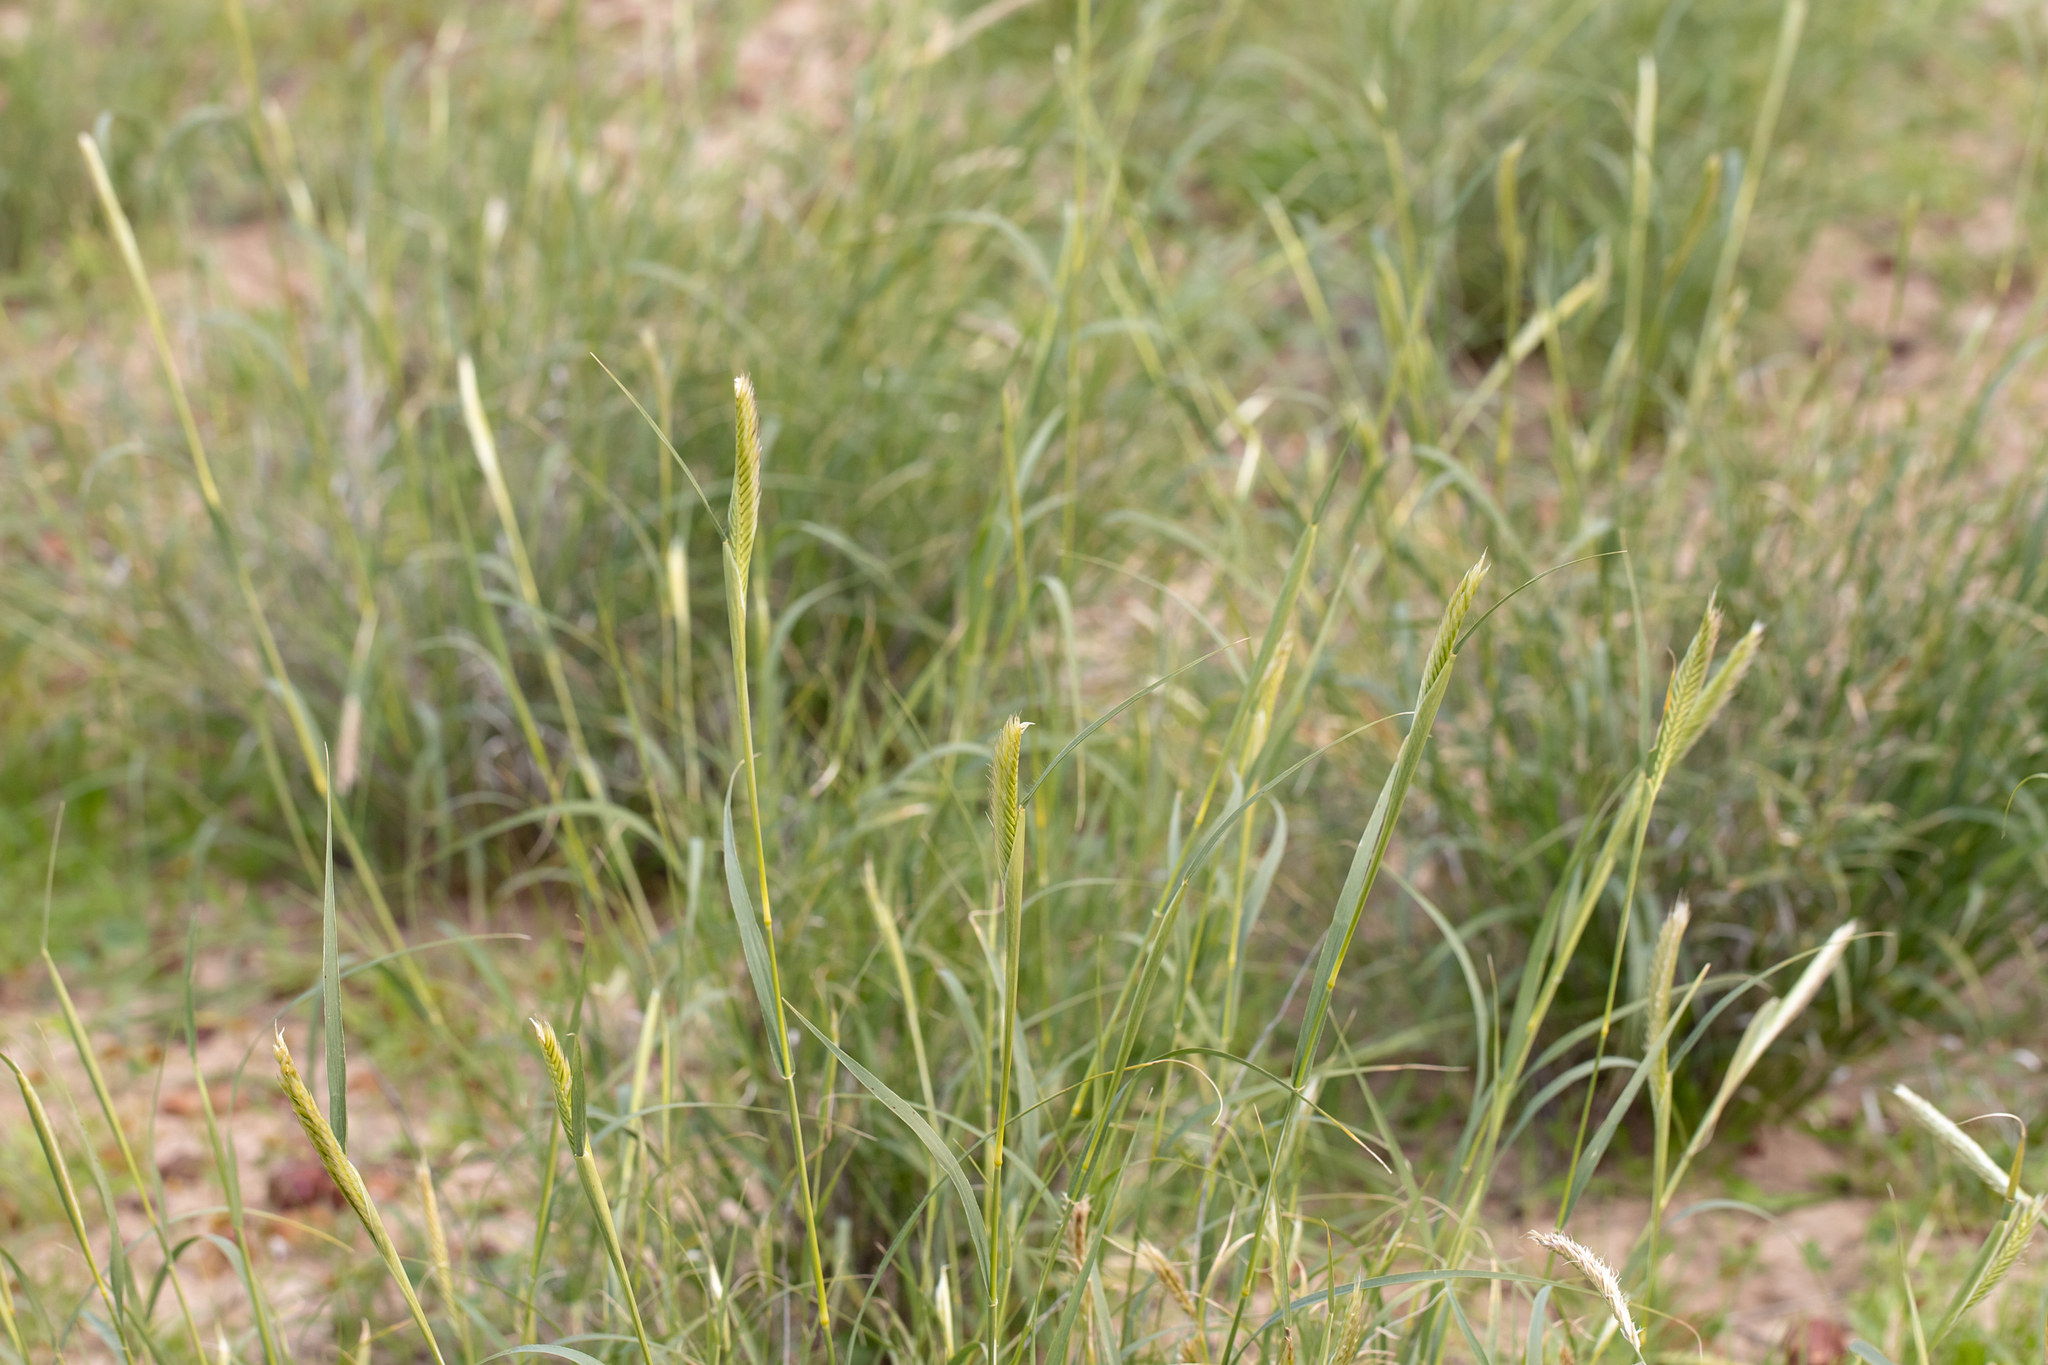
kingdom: Plantae
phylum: Tracheophyta
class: Liliopsida
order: Poales
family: Poaceae
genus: Astrebla
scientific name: Astrebla pectinata
